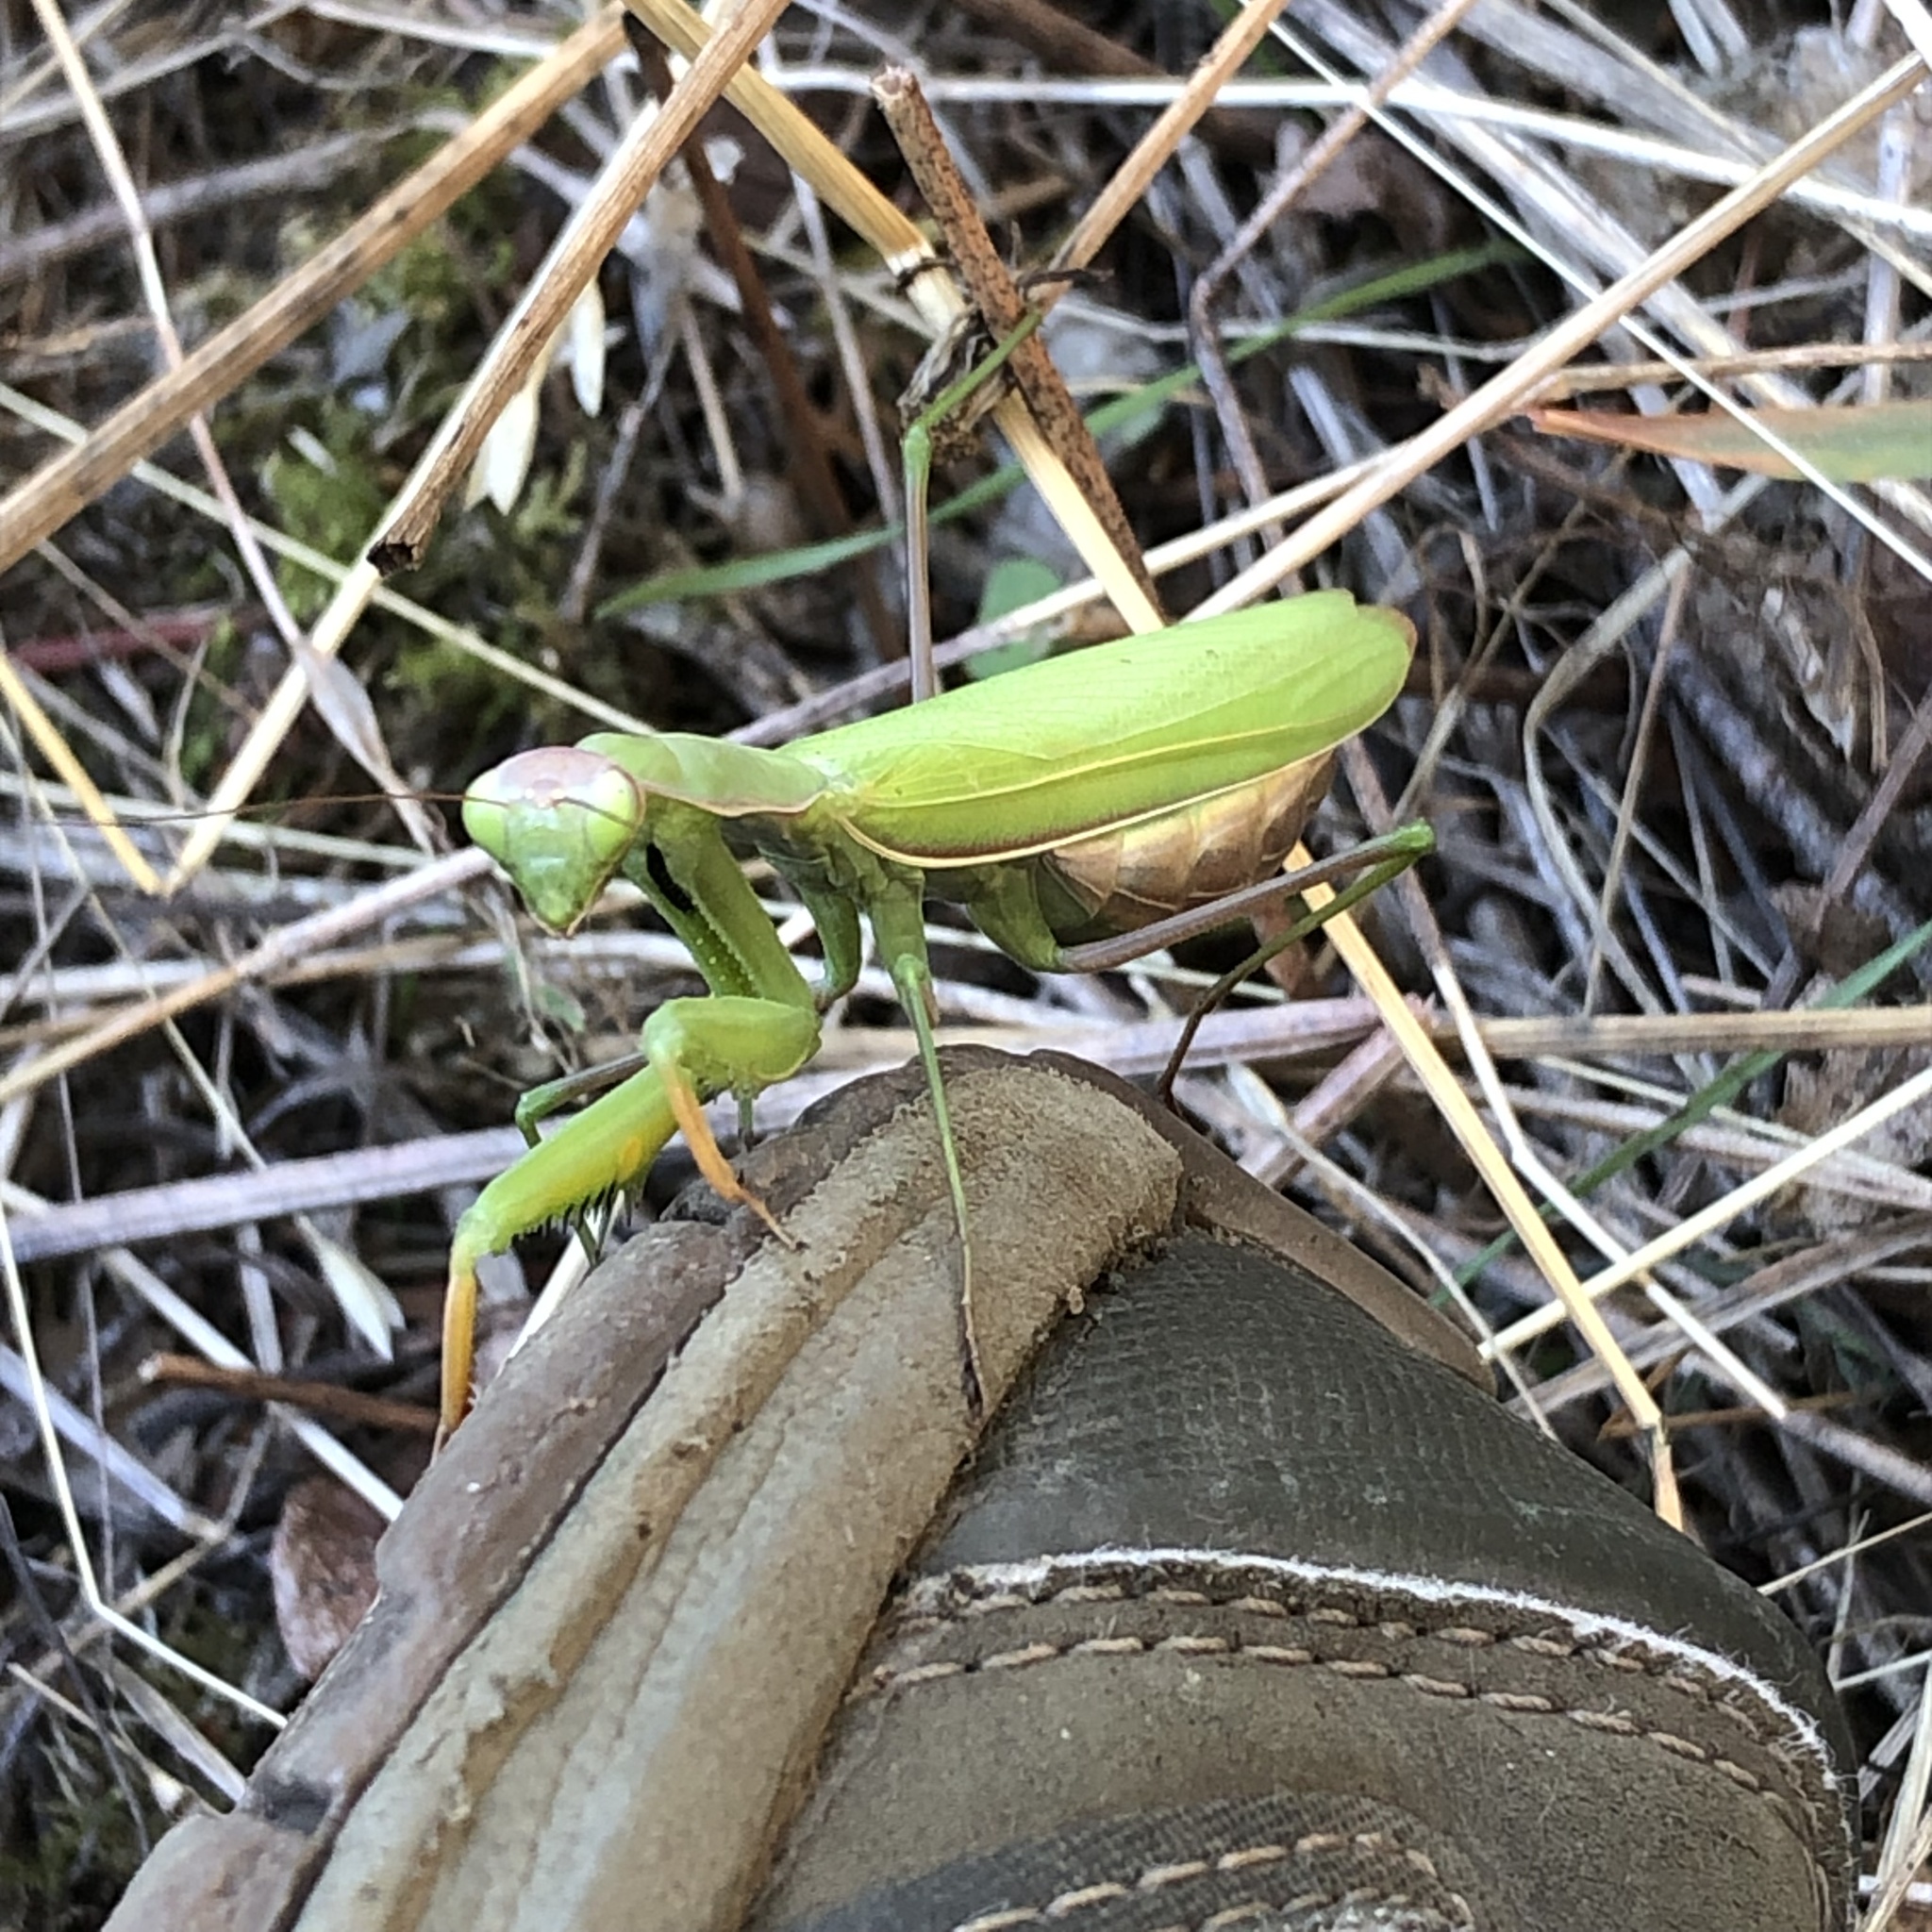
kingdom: Animalia
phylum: Arthropoda
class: Insecta
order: Mantodea
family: Mantidae
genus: Mantis
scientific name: Mantis religiosa
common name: Praying mantis
